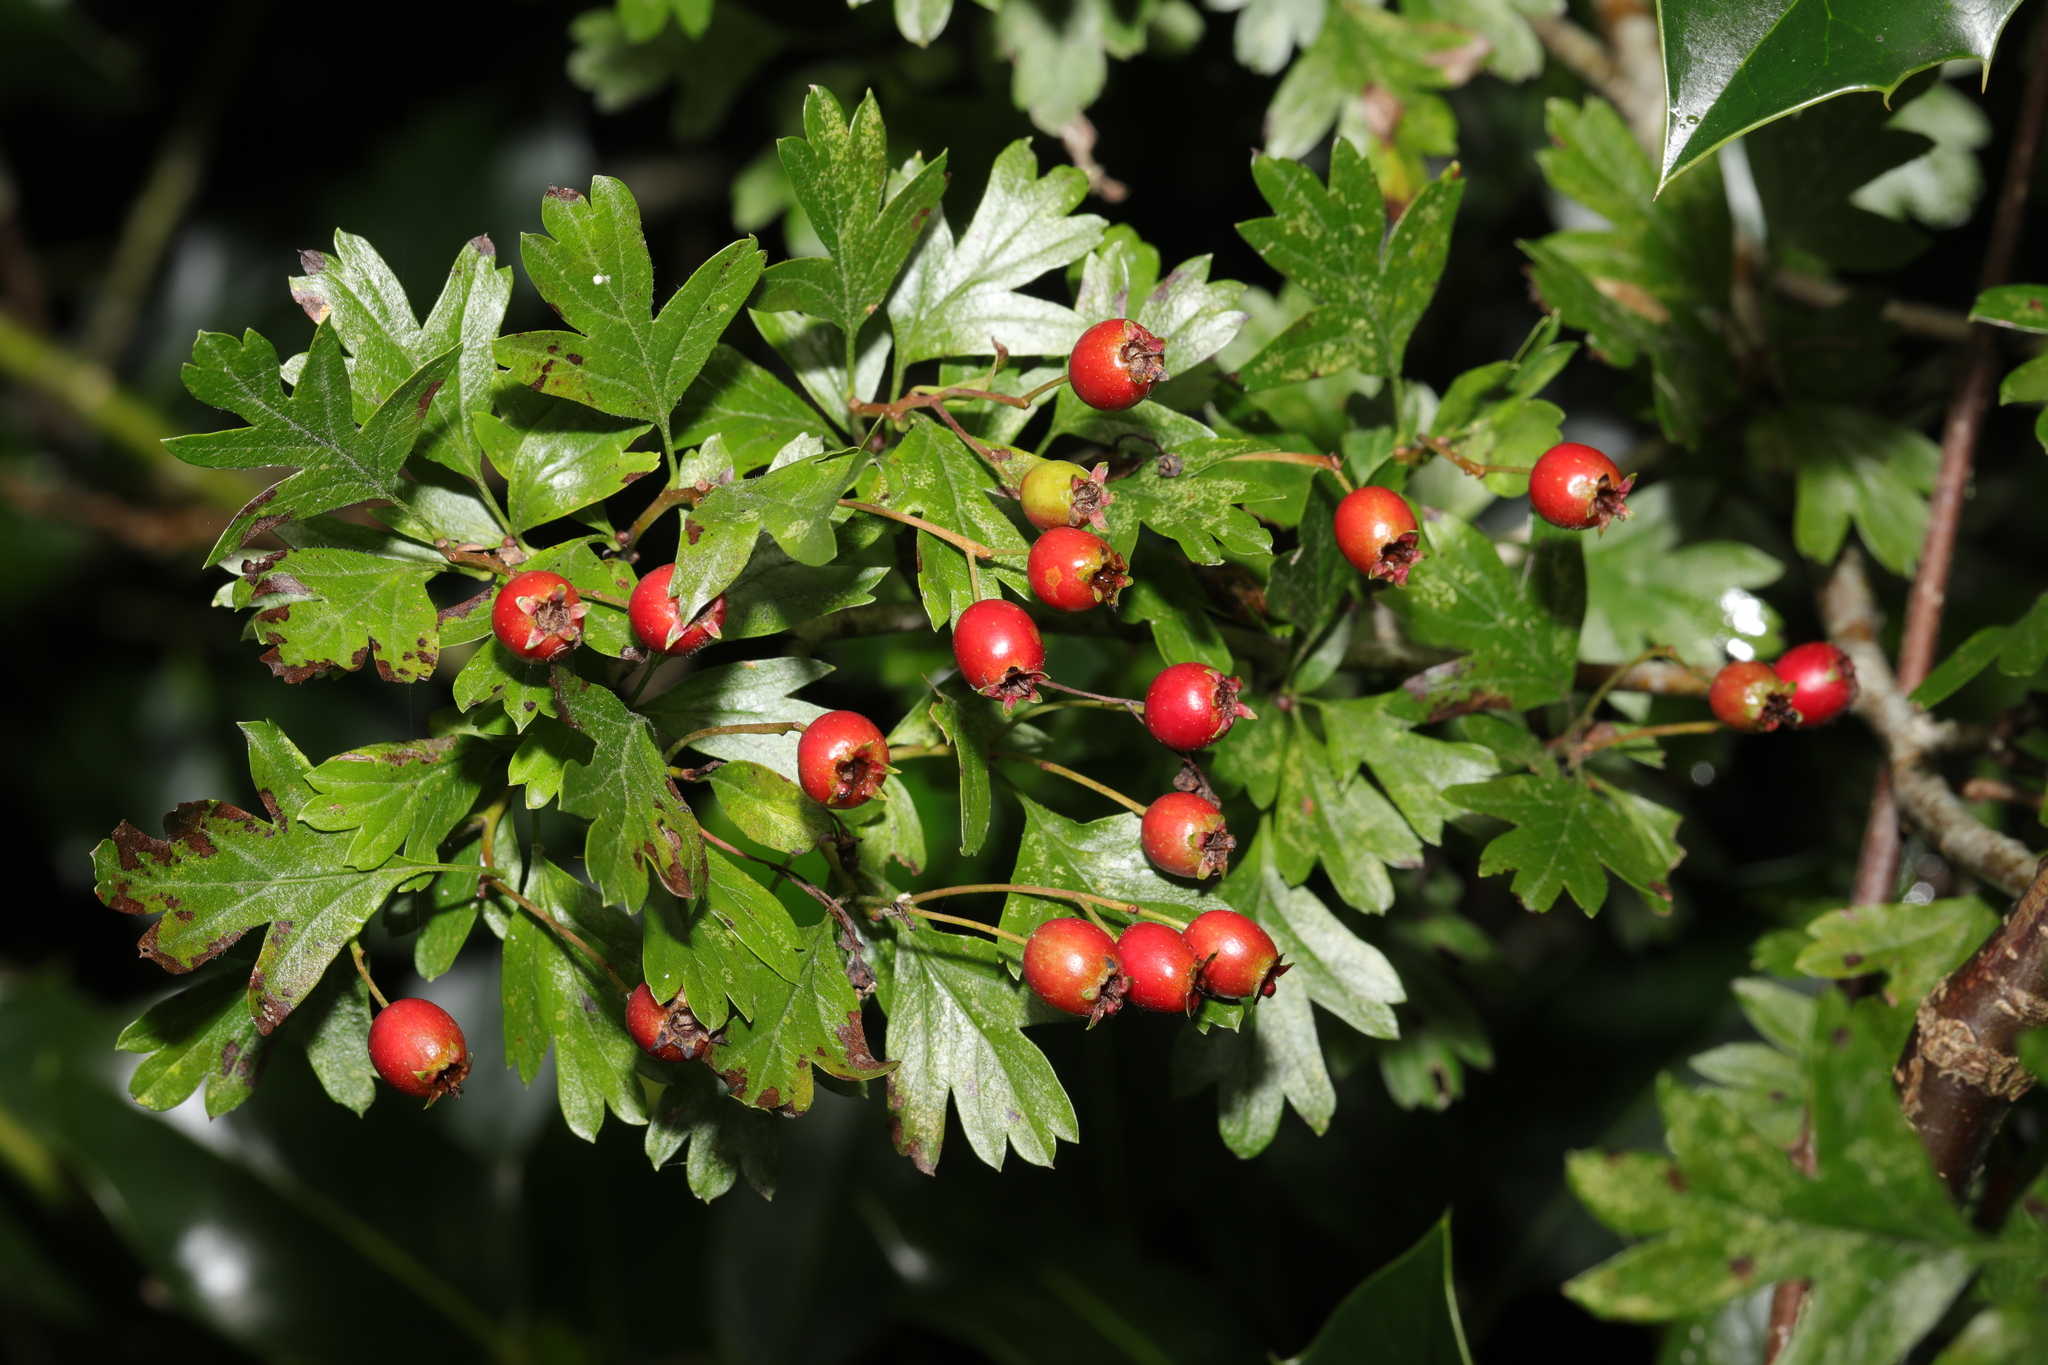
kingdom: Plantae
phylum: Tracheophyta
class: Magnoliopsida
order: Rosales
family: Rosaceae
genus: Crataegus
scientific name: Crataegus monogyna
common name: Hawthorn
